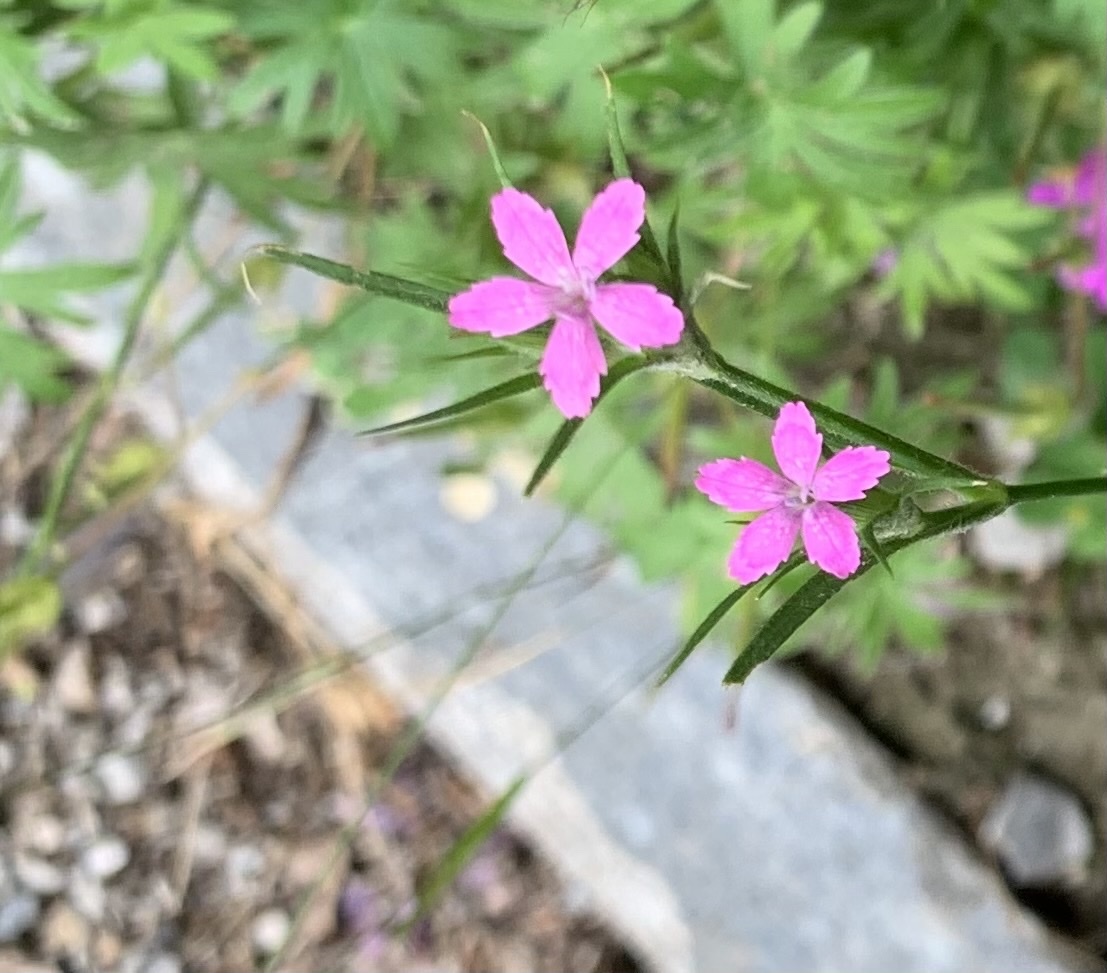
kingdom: Plantae
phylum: Tracheophyta
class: Magnoliopsida
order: Caryophyllales
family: Caryophyllaceae
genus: Dianthus
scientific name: Dianthus armeria
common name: Deptford pink
